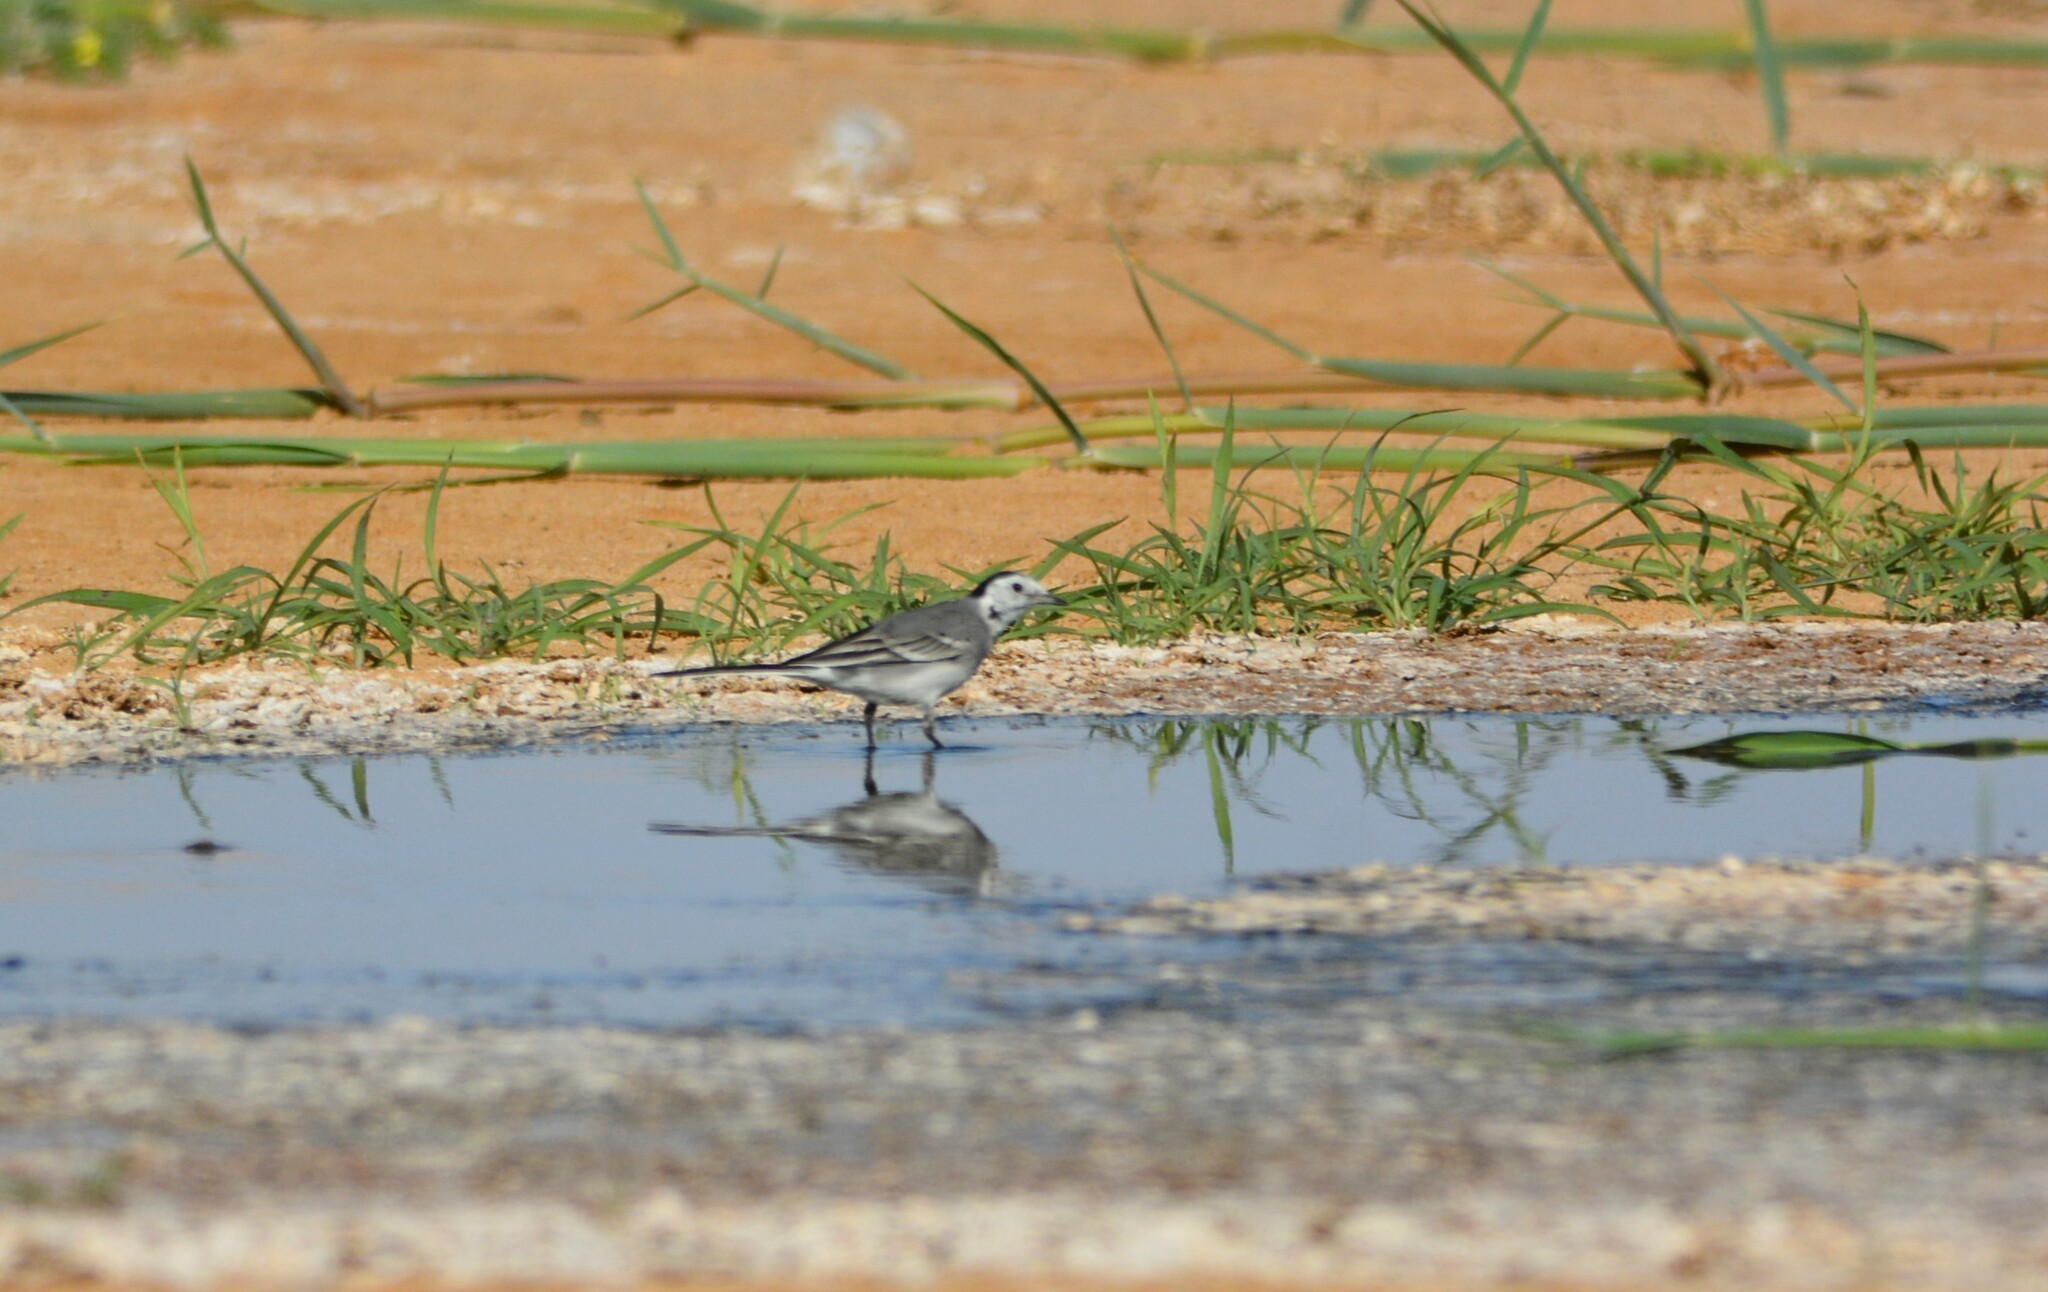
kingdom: Animalia
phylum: Chordata
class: Aves
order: Passeriformes
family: Motacillidae
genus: Motacilla
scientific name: Motacilla alba
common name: White wagtail
